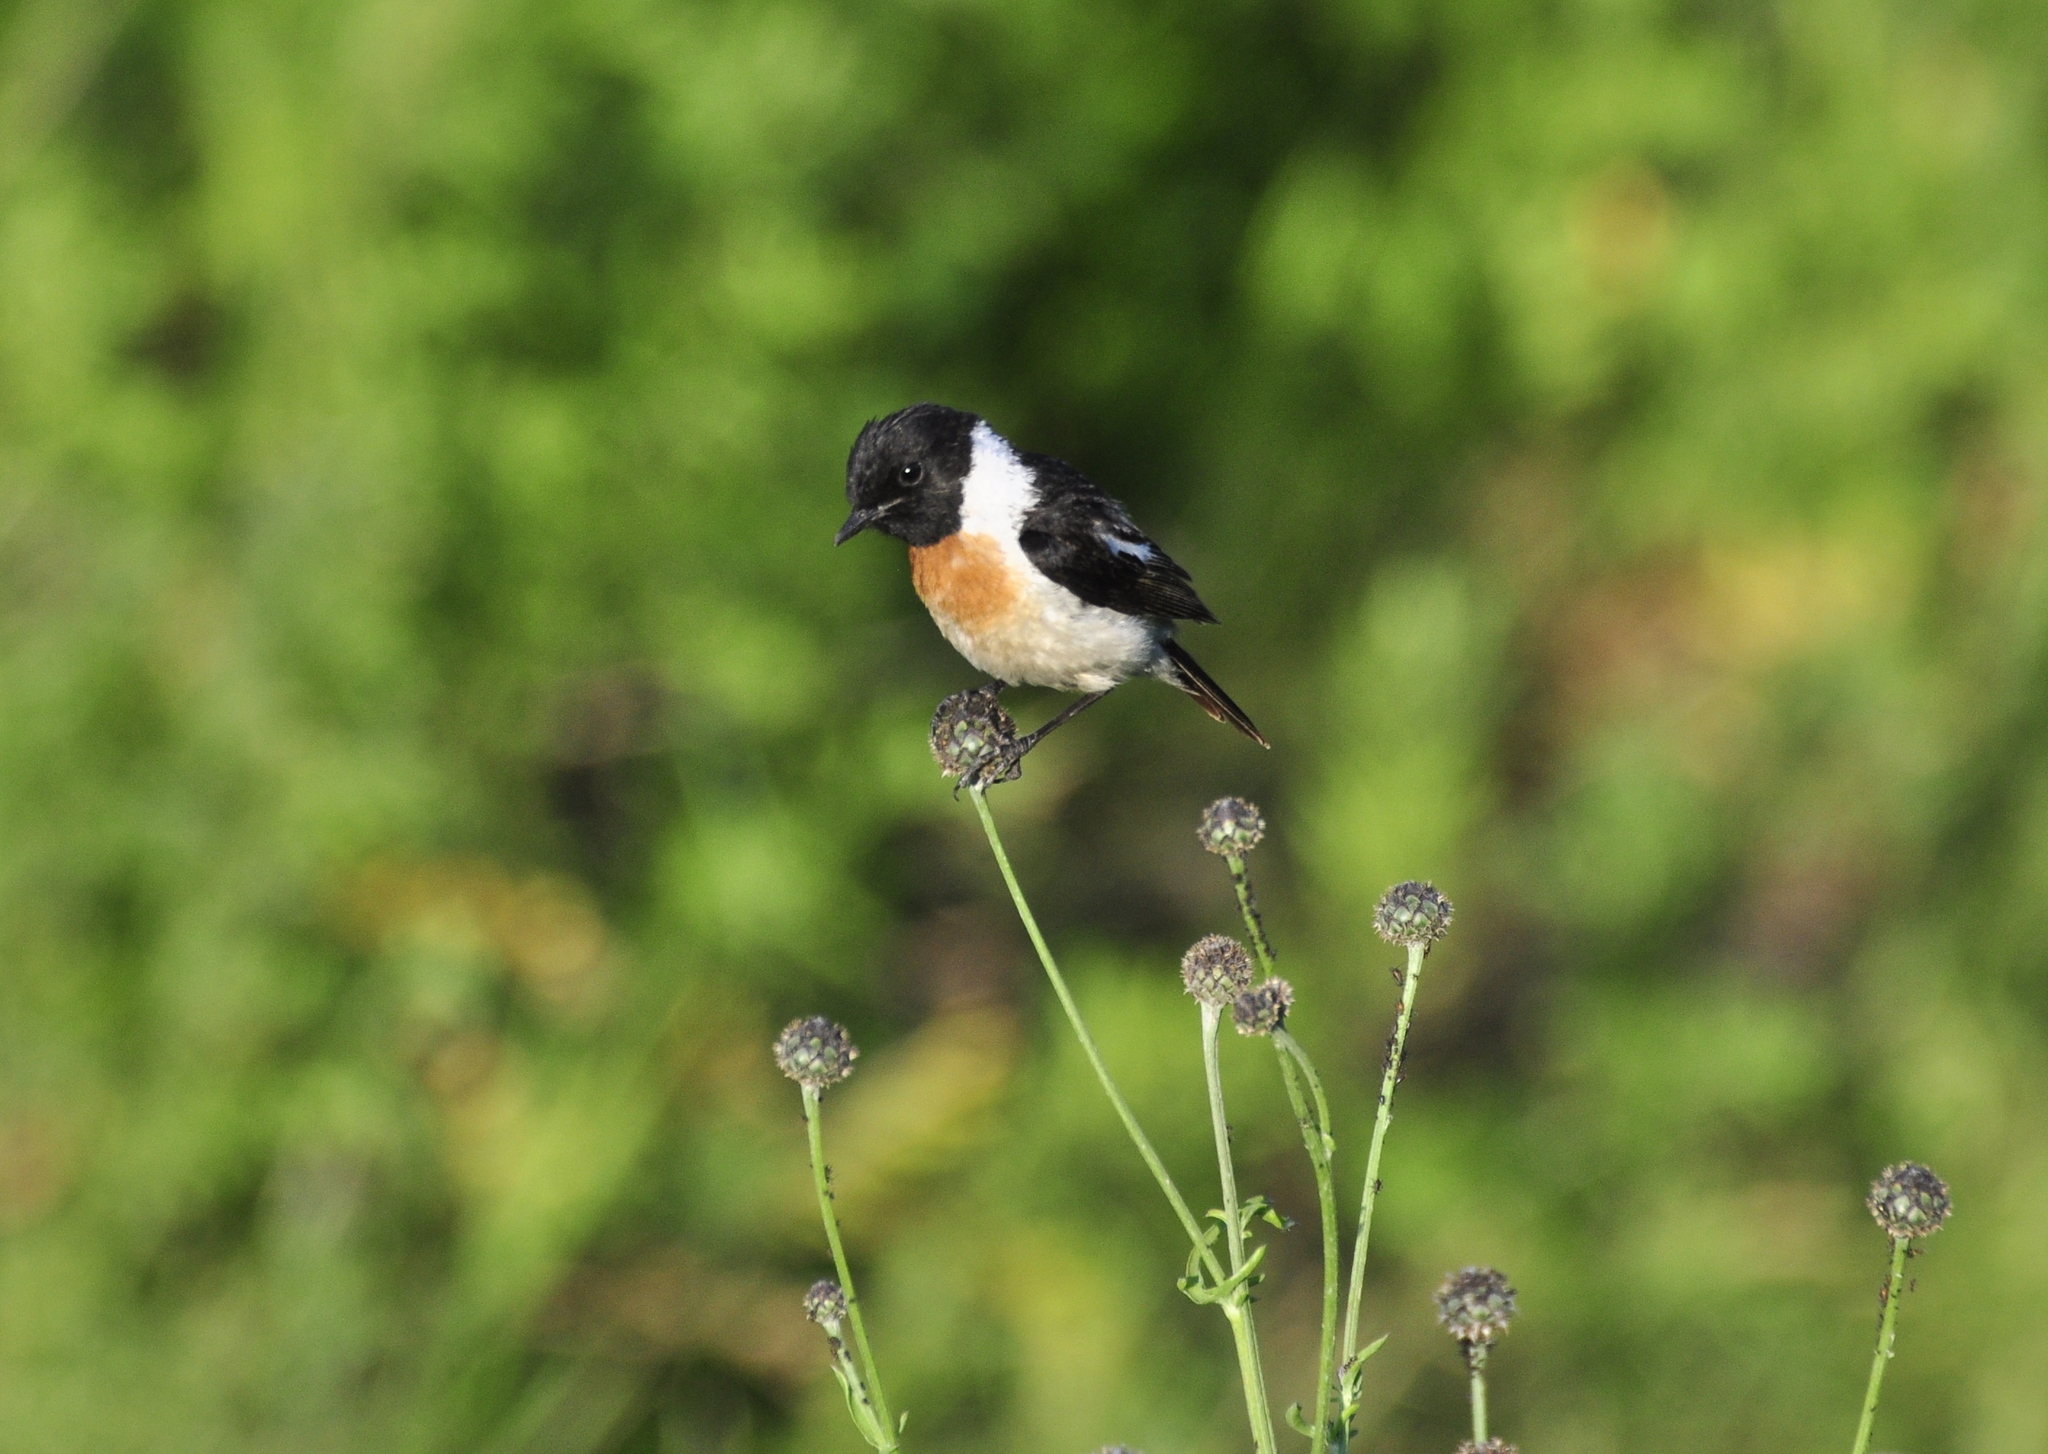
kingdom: Animalia
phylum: Chordata
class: Aves
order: Passeriformes
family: Muscicapidae
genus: Saxicola
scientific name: Saxicola maurus
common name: Siberian stonechat
